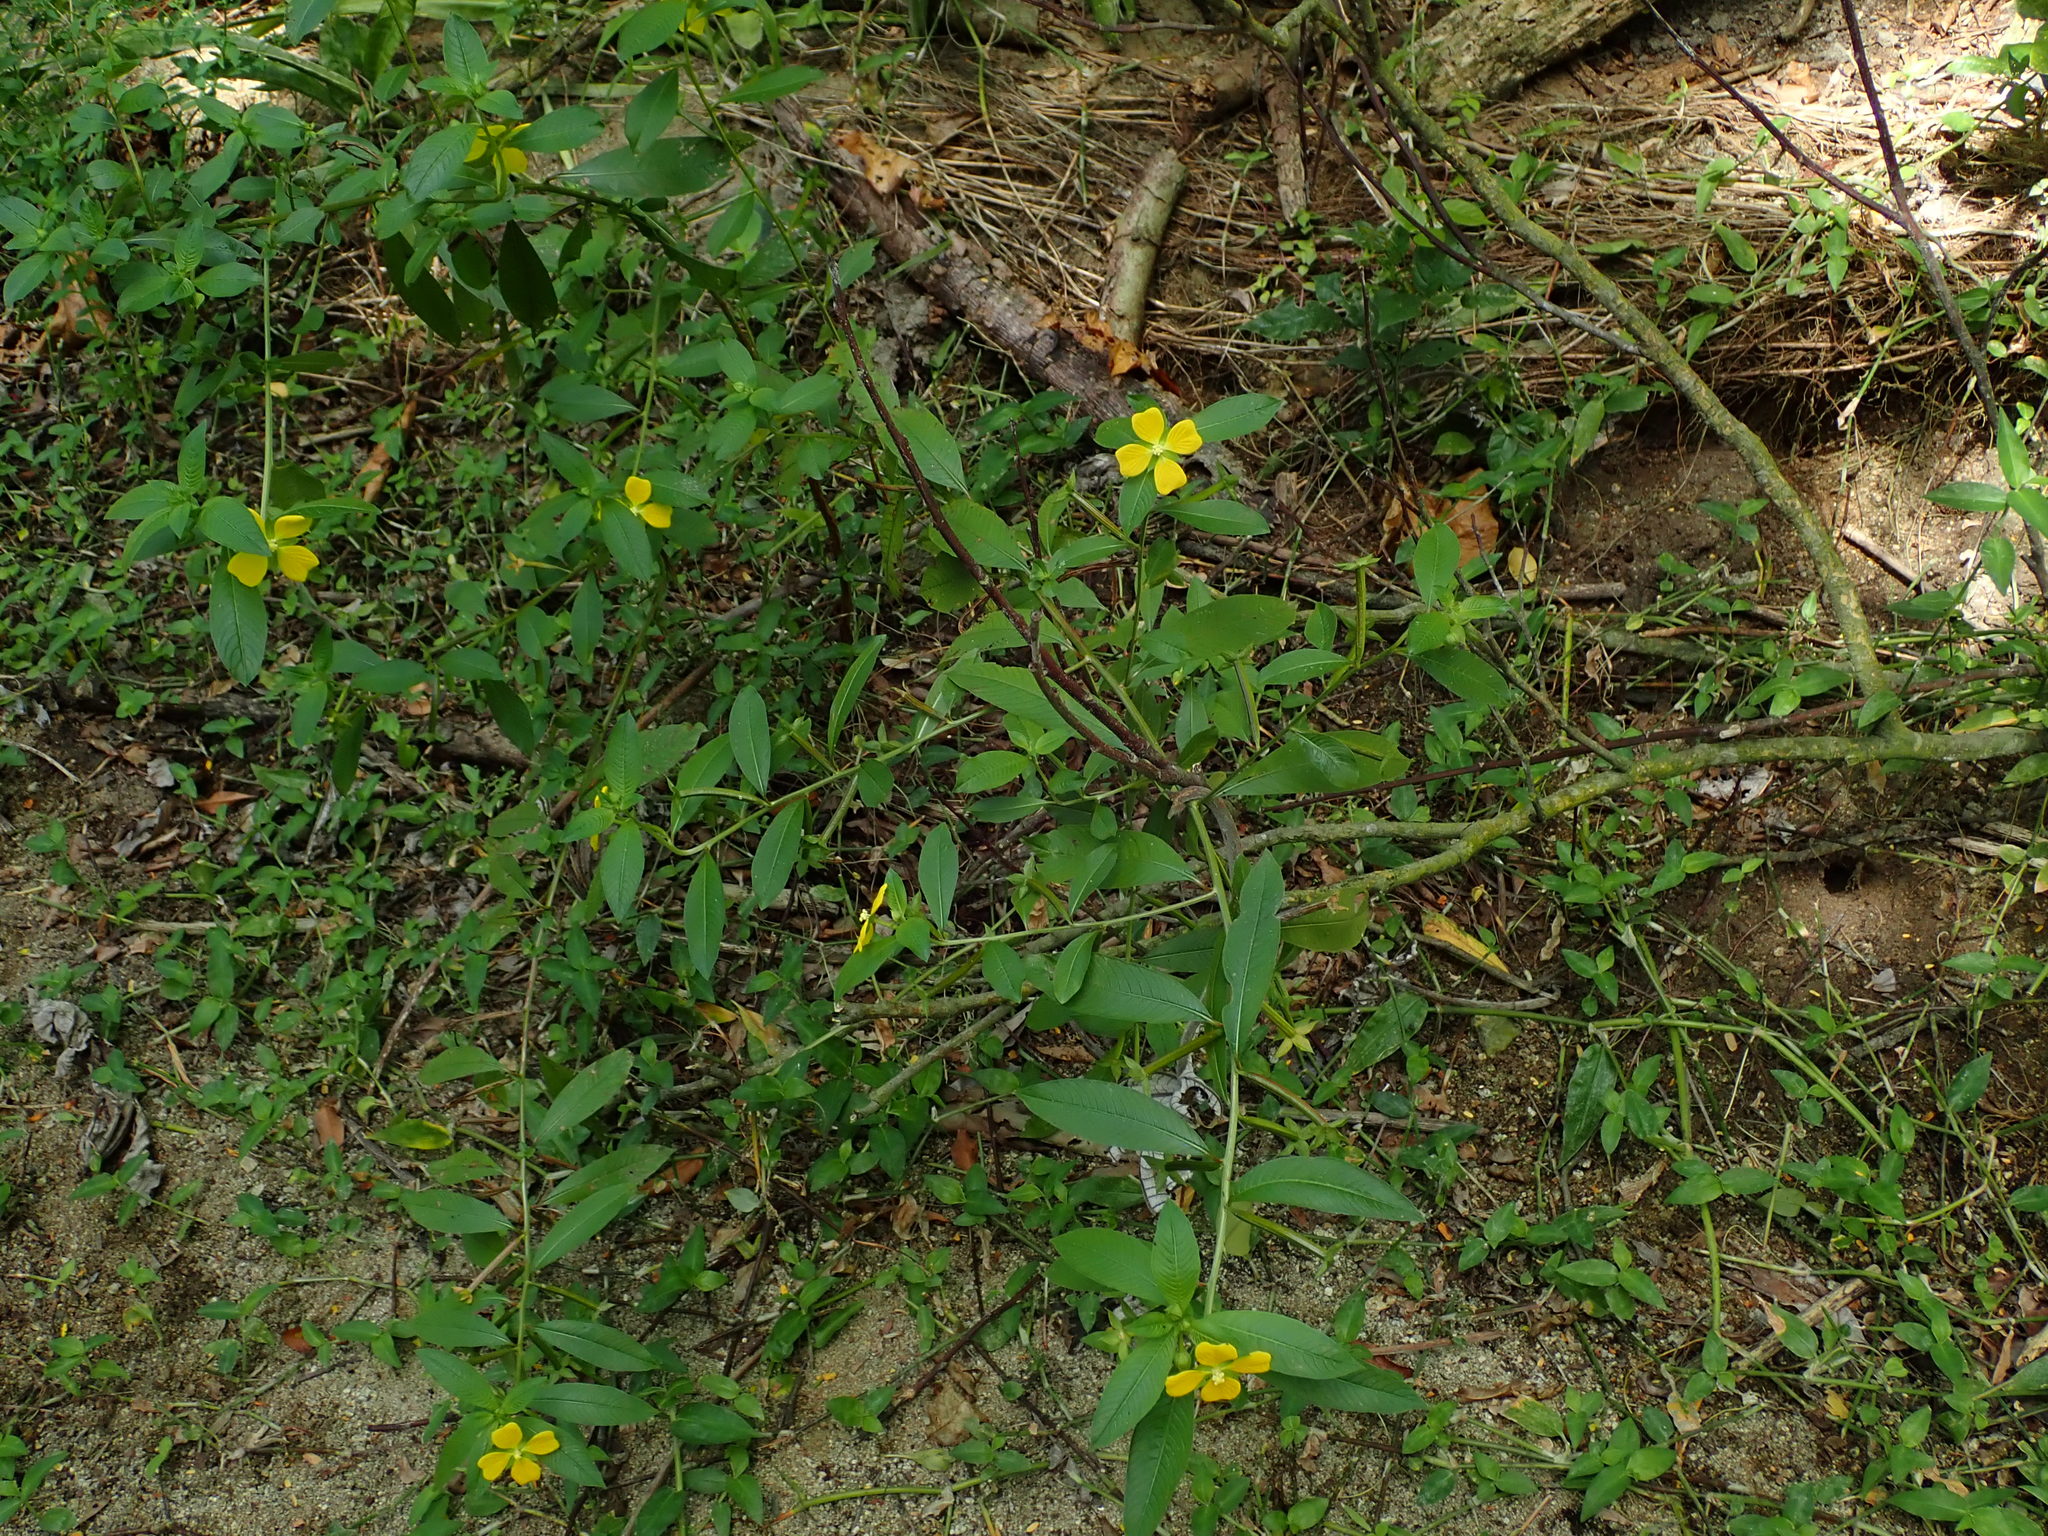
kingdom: Plantae
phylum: Tracheophyta
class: Magnoliopsida
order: Myrtales
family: Onagraceae
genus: Ludwigia
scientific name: Ludwigia octovalvis
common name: Water-primrose
